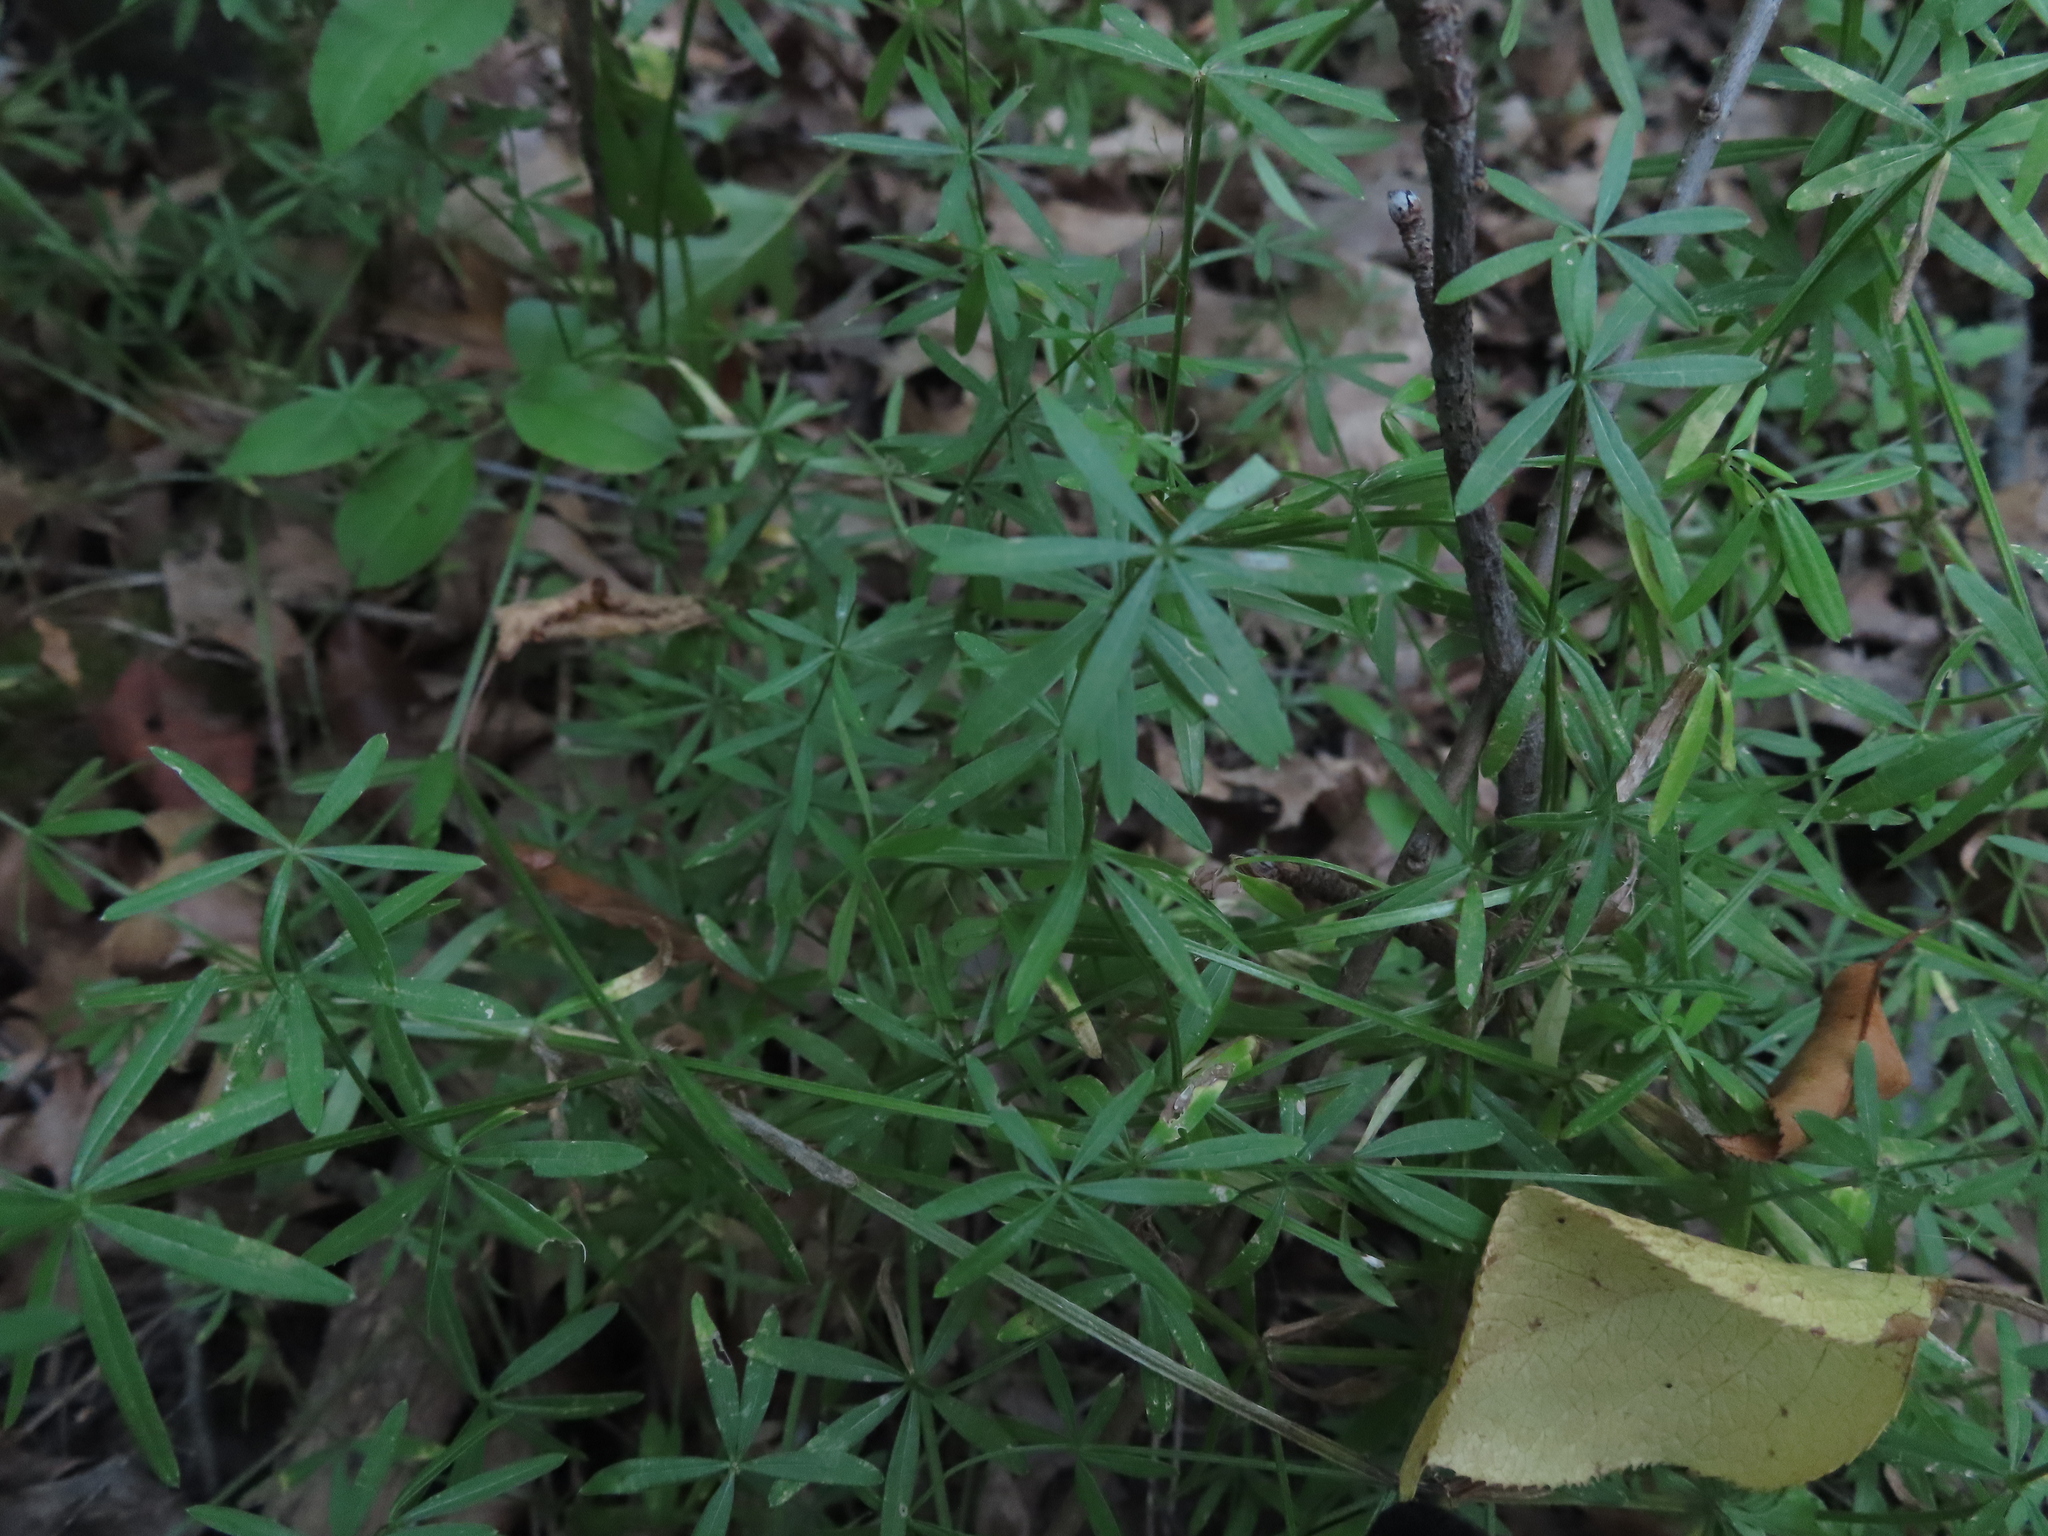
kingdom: Plantae
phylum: Tracheophyta
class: Magnoliopsida
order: Gentianales
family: Rubiaceae
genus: Galium
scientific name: Galium concinnum
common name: Shining bedstraw
